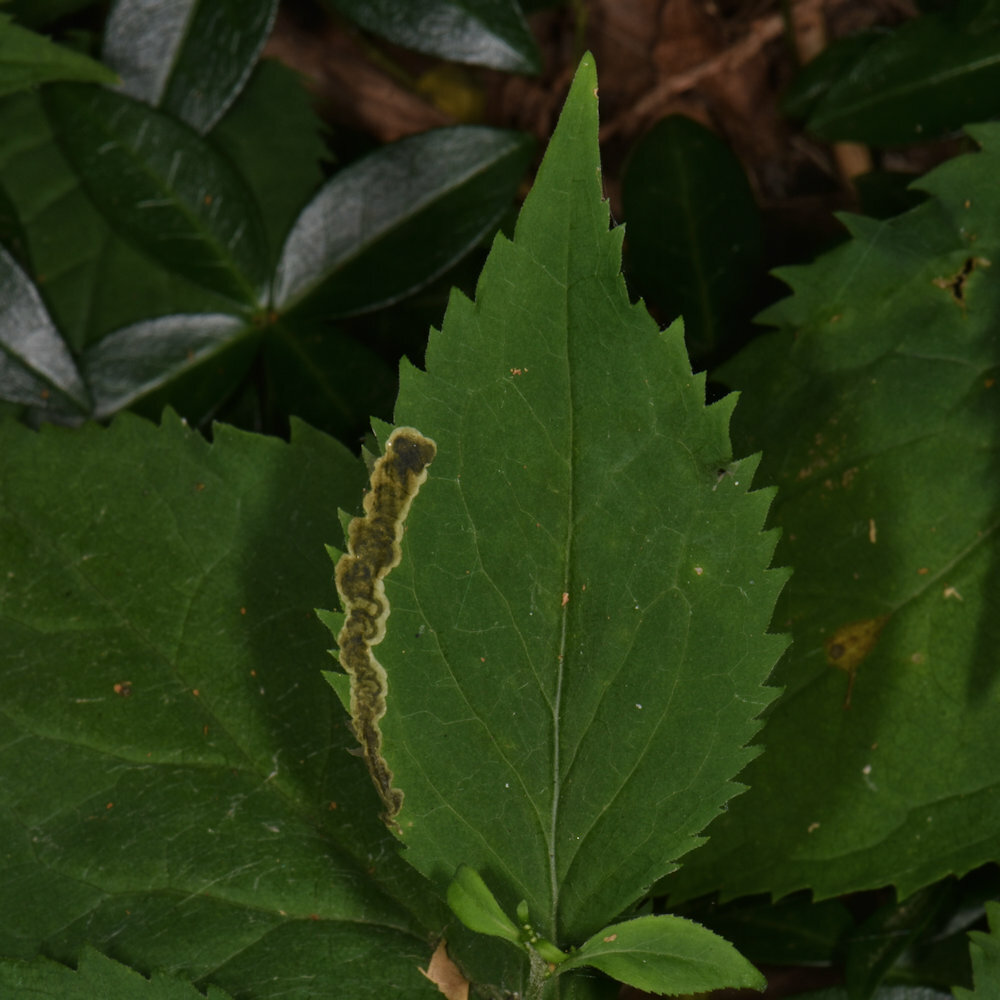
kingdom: Animalia
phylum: Arthropoda
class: Insecta
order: Diptera
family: Agromyzidae
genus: Nemorimyza
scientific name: Nemorimyza posticata
